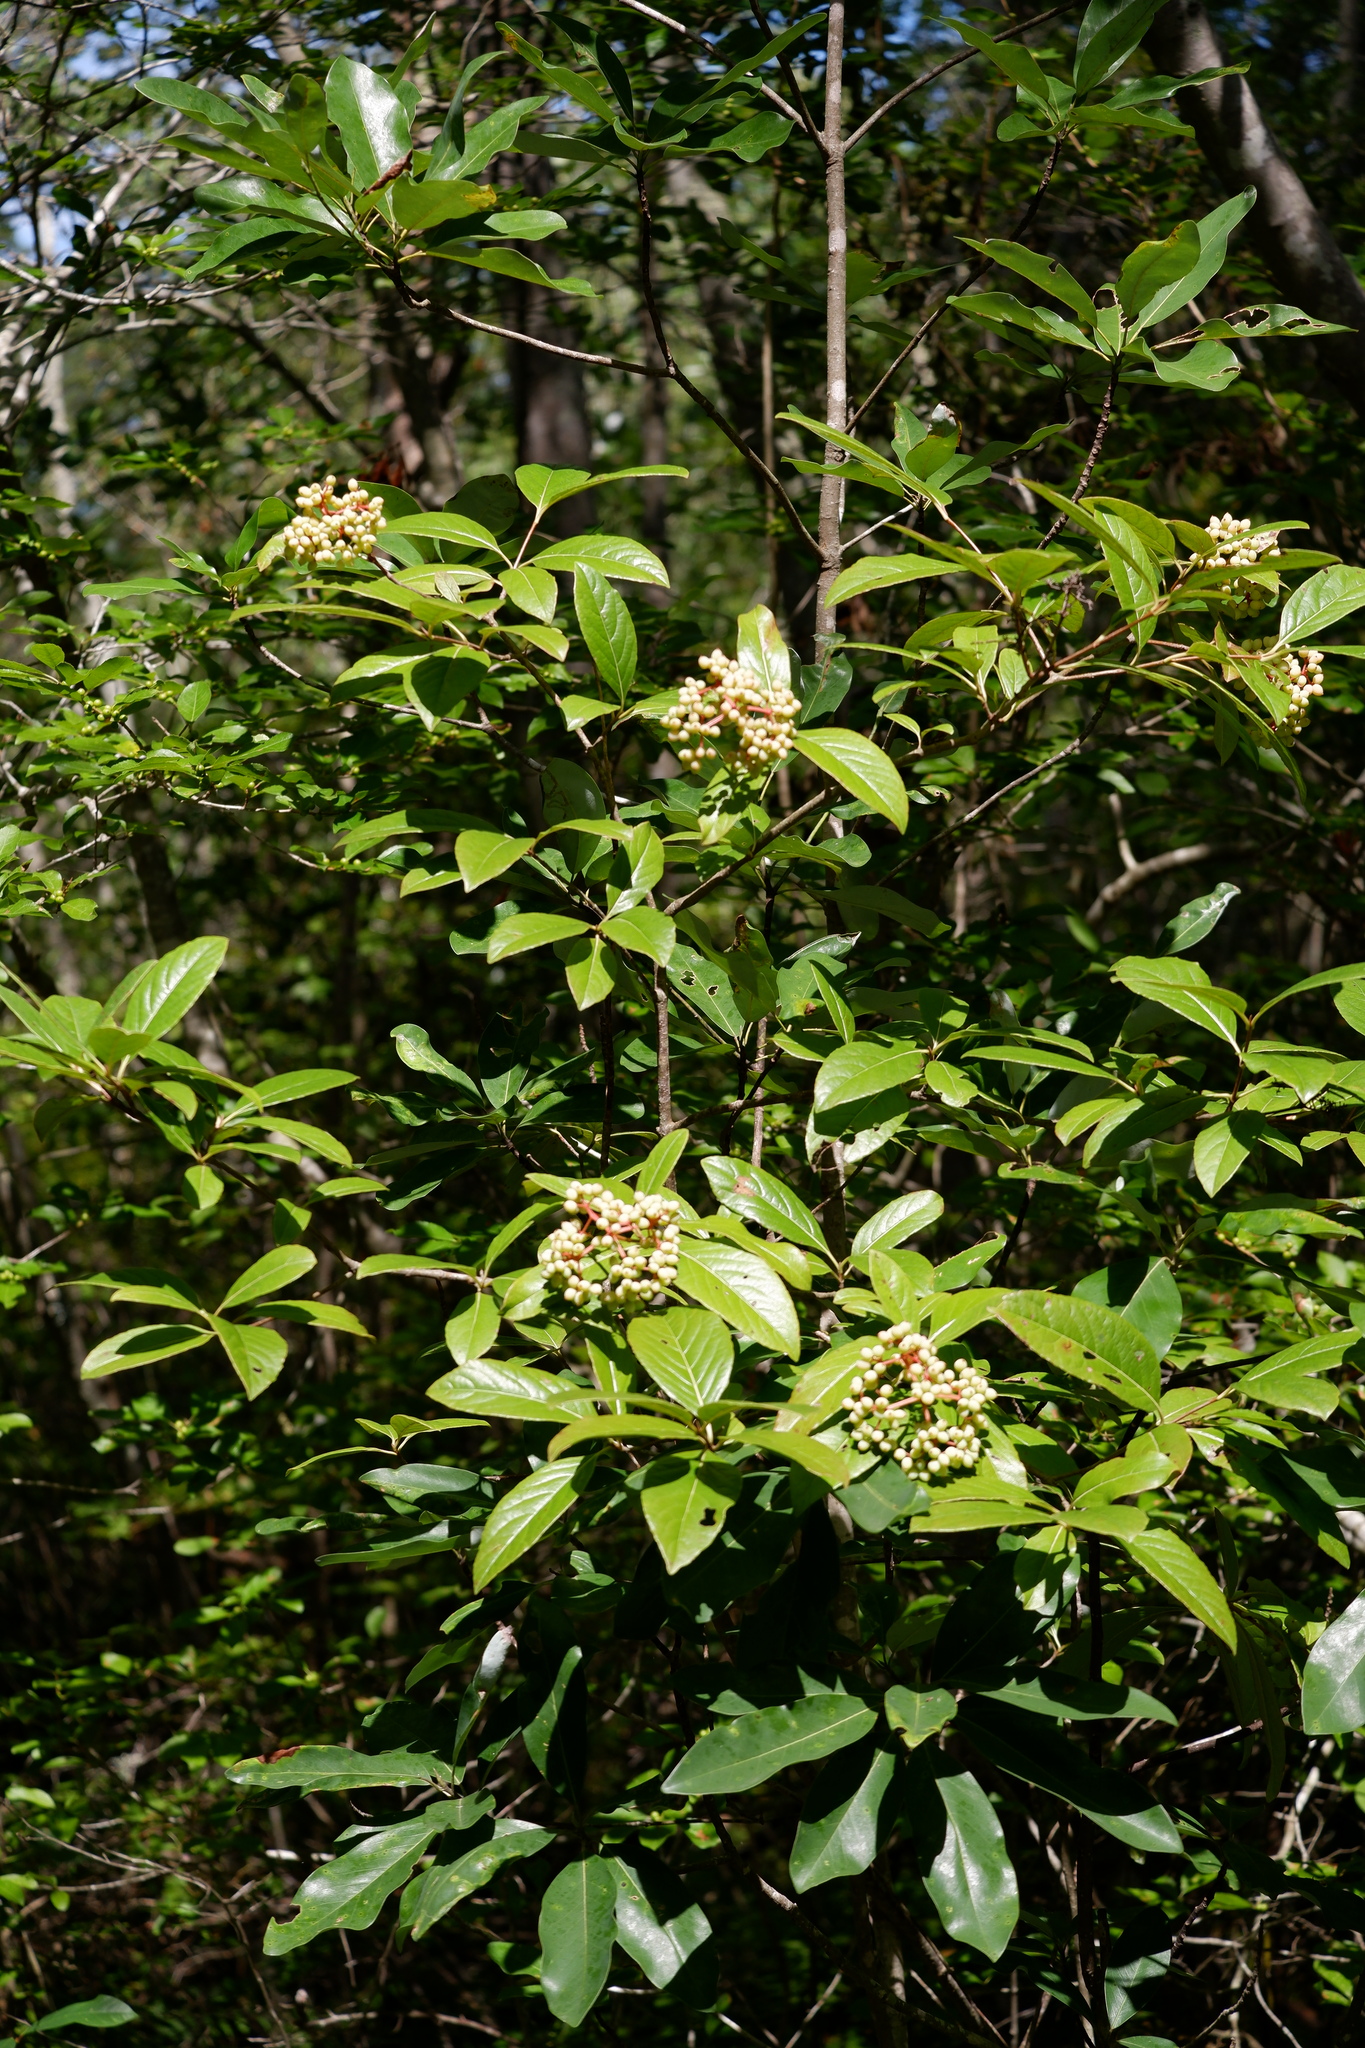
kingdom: Plantae
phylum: Tracheophyta
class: Magnoliopsida
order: Dipsacales
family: Viburnaceae
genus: Viburnum
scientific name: Viburnum nudum
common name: Possum haw
